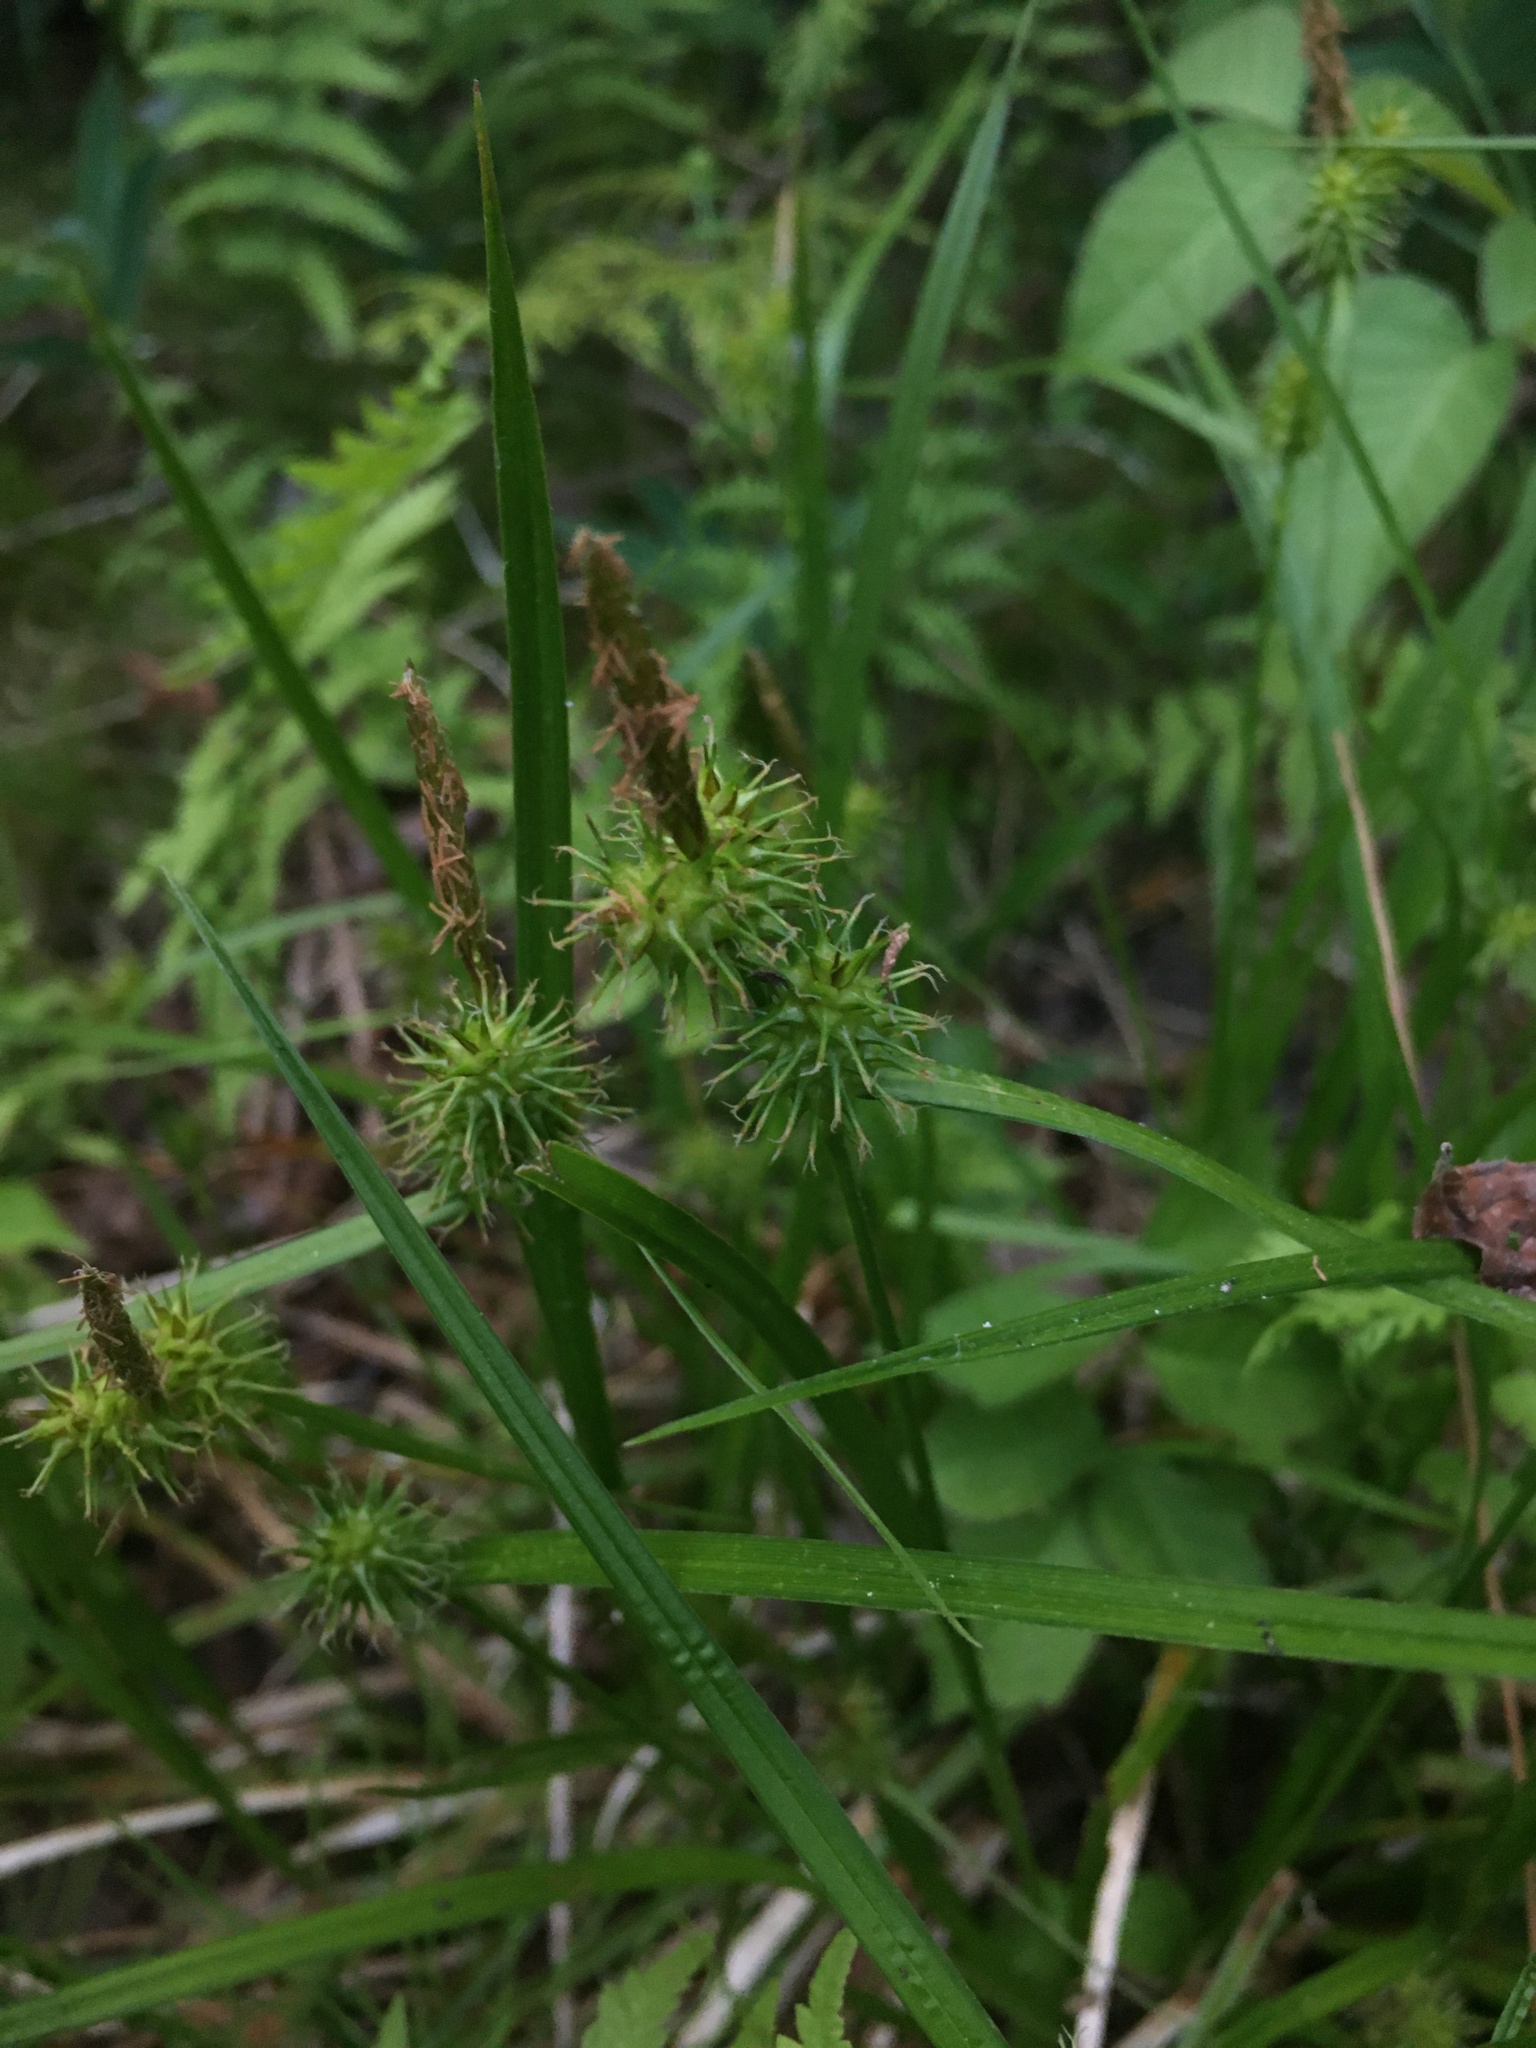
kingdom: Plantae
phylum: Tracheophyta
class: Liliopsida
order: Poales
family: Cyperaceae
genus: Carex
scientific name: Carex flava
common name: Large yellow-sedge
